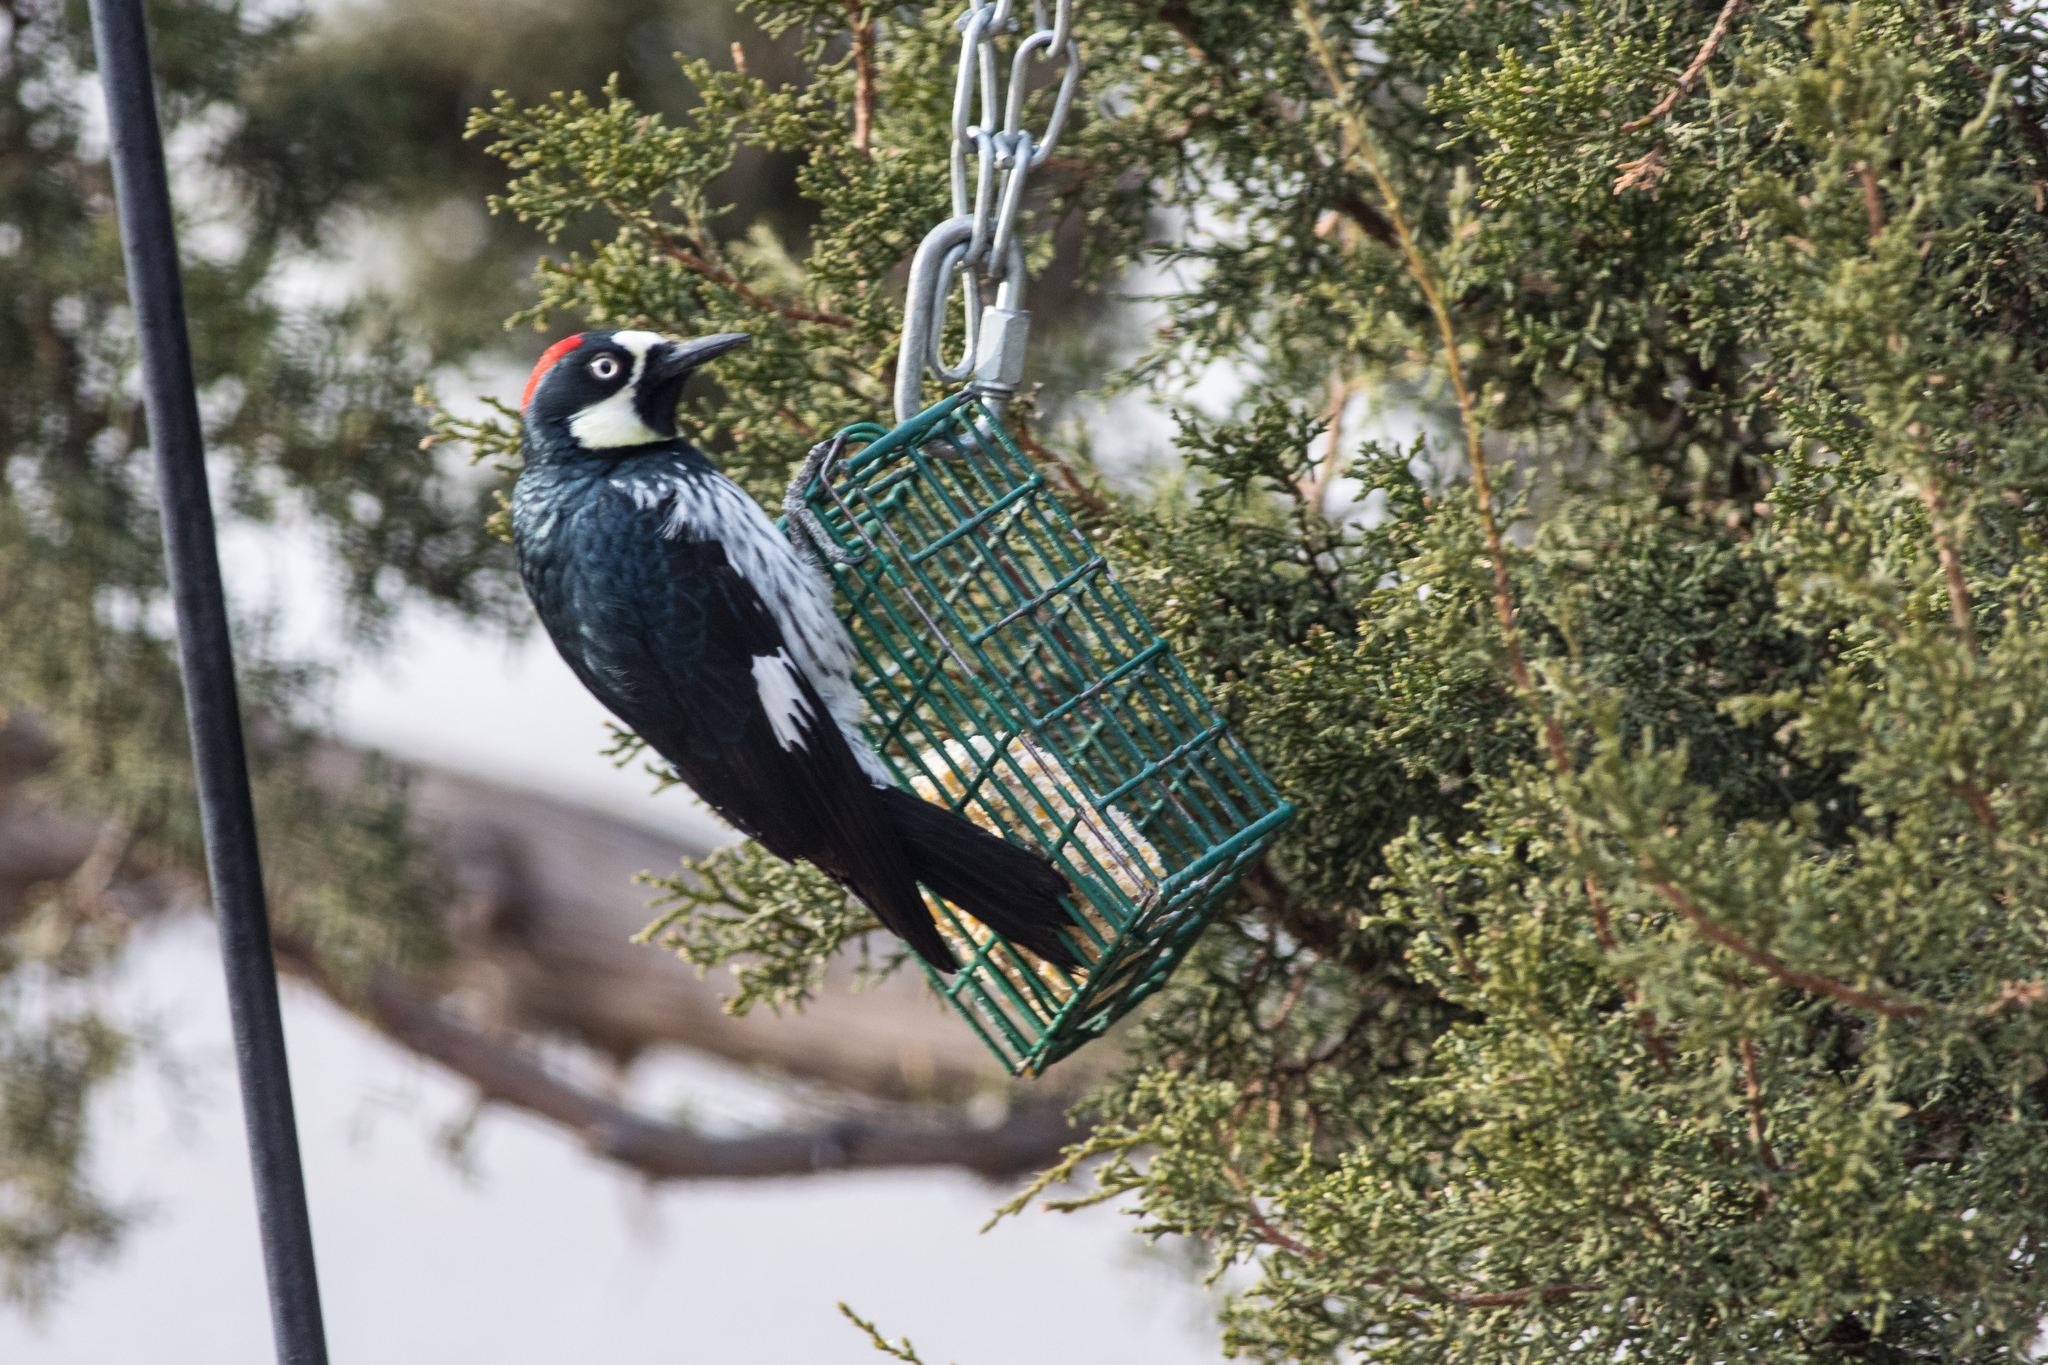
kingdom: Animalia
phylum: Chordata
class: Aves
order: Piciformes
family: Picidae
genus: Melanerpes
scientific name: Melanerpes formicivorus
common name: Acorn woodpecker
